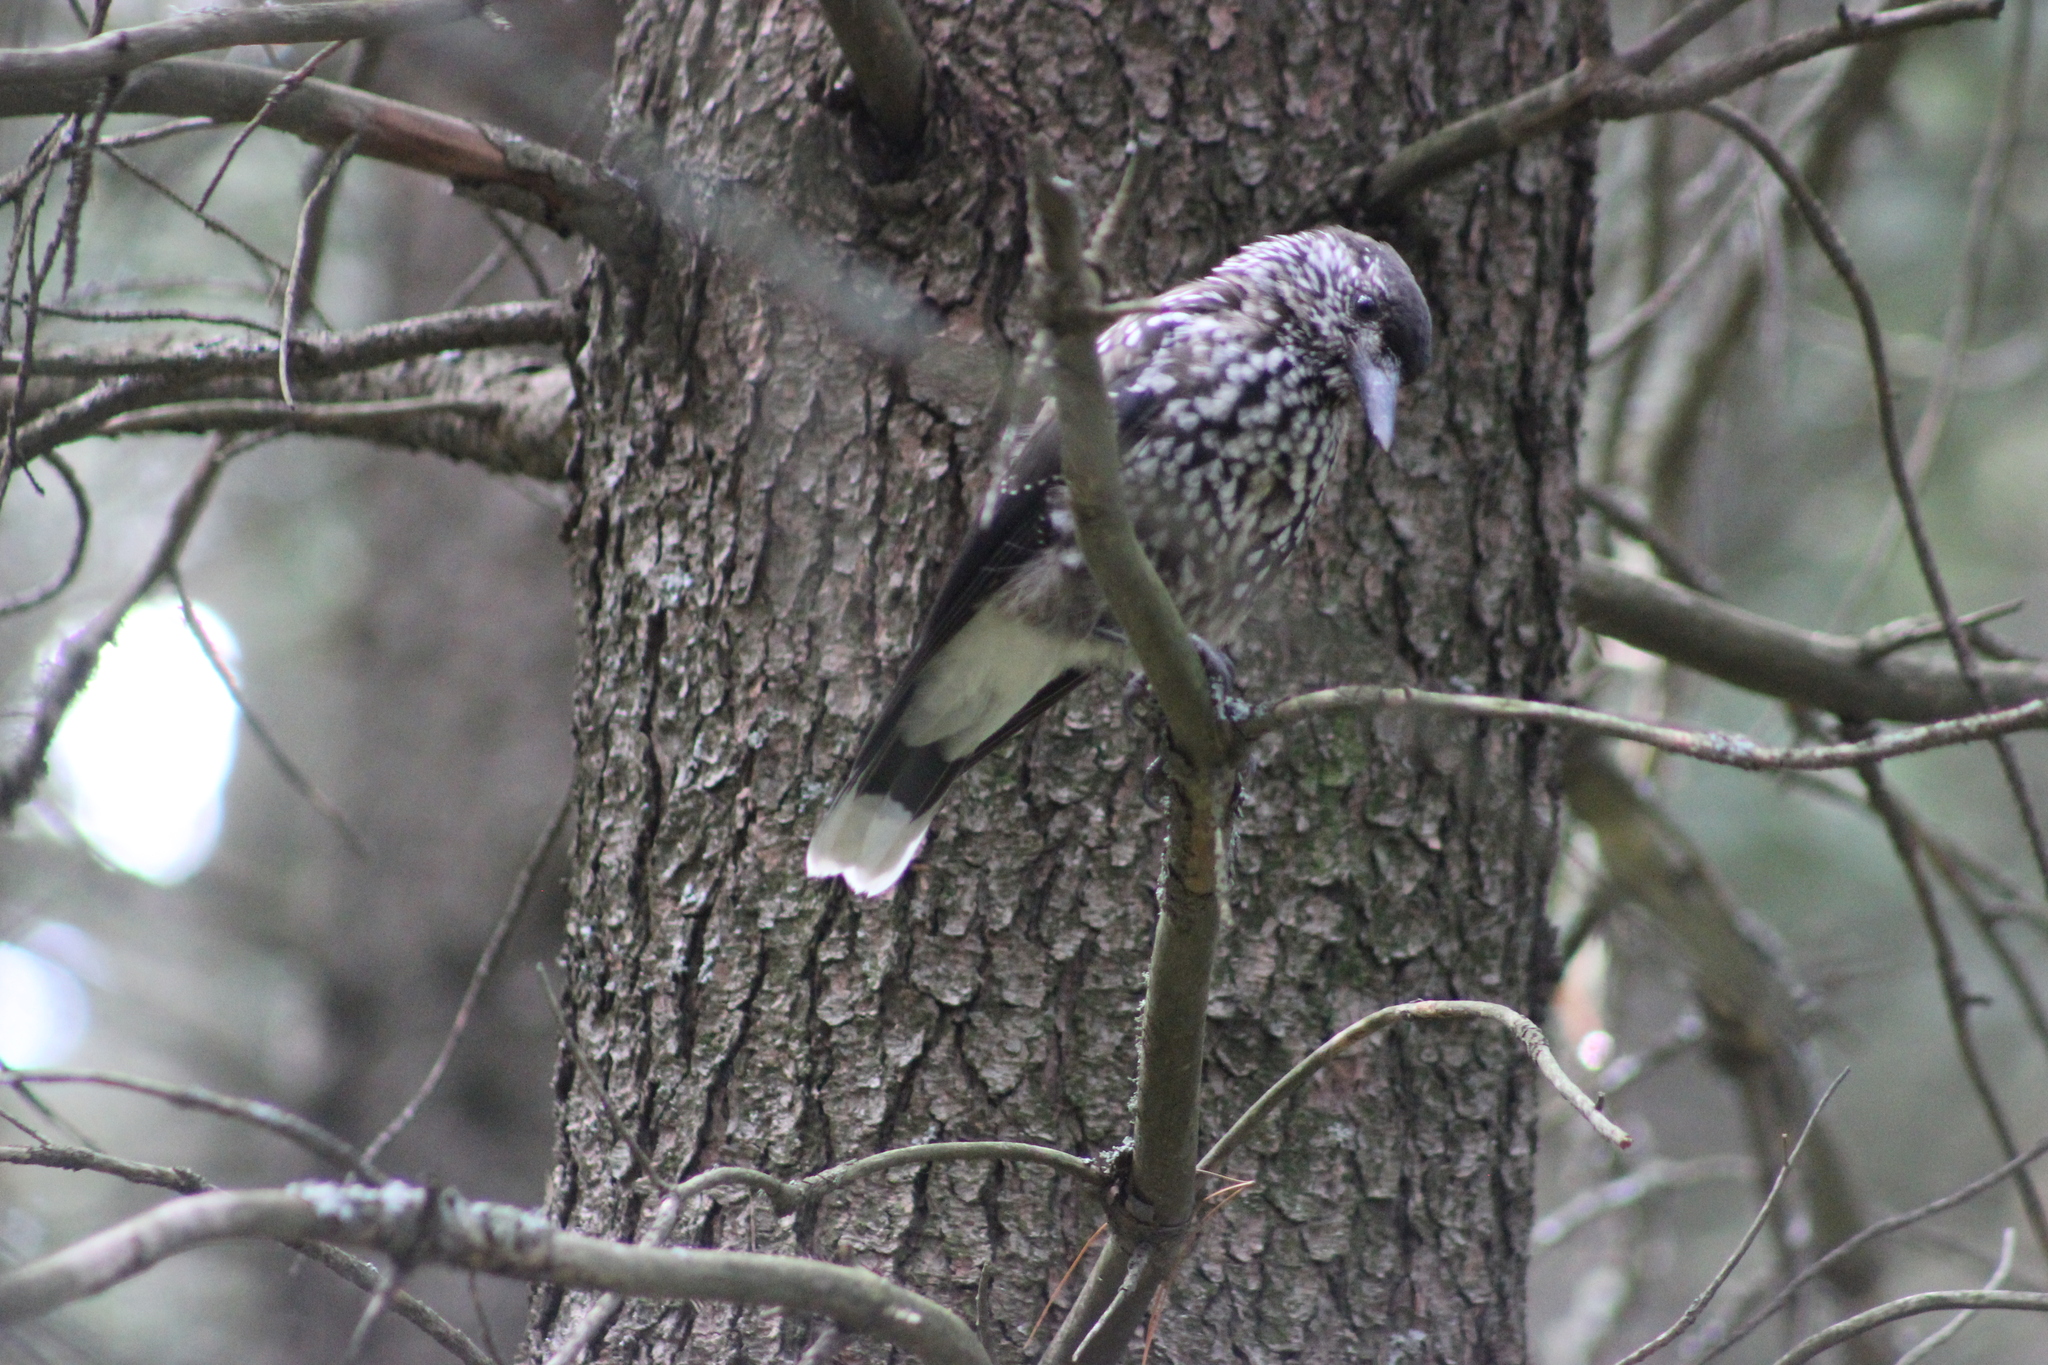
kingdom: Animalia
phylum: Chordata
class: Aves
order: Passeriformes
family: Corvidae
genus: Nucifraga
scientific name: Nucifraga caryocatactes
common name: Spotted nutcracker
